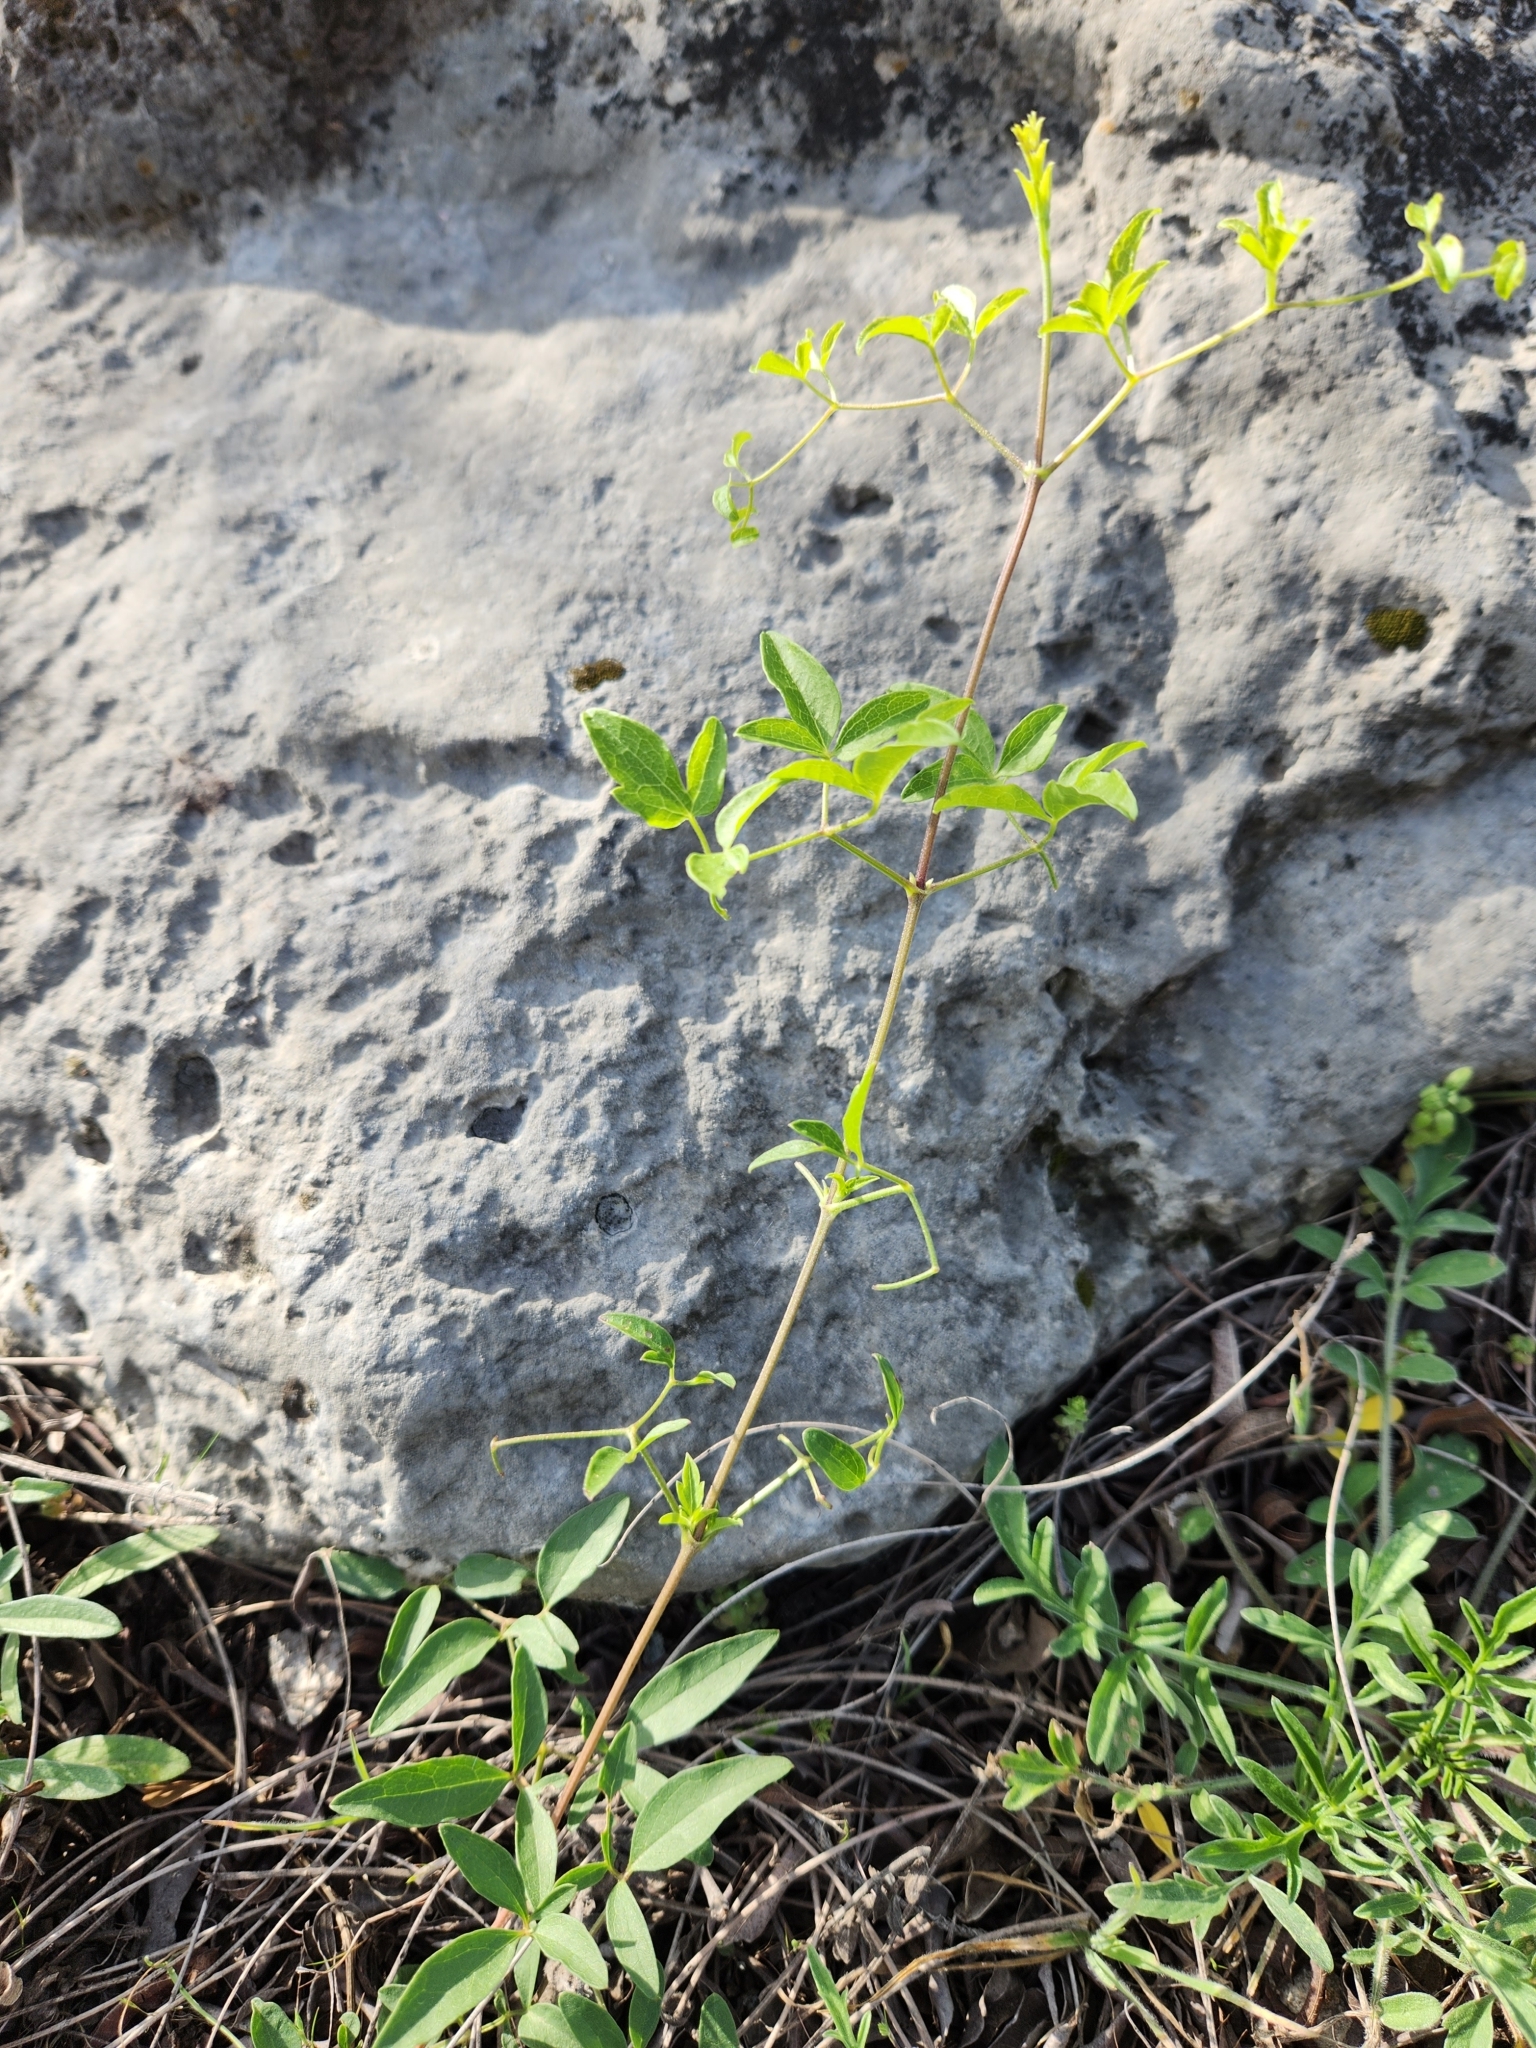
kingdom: Plantae
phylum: Tracheophyta
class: Magnoliopsida
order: Ranunculales
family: Ranunculaceae
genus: Clematis
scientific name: Clematis pitcheri
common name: Bellflower clematis
